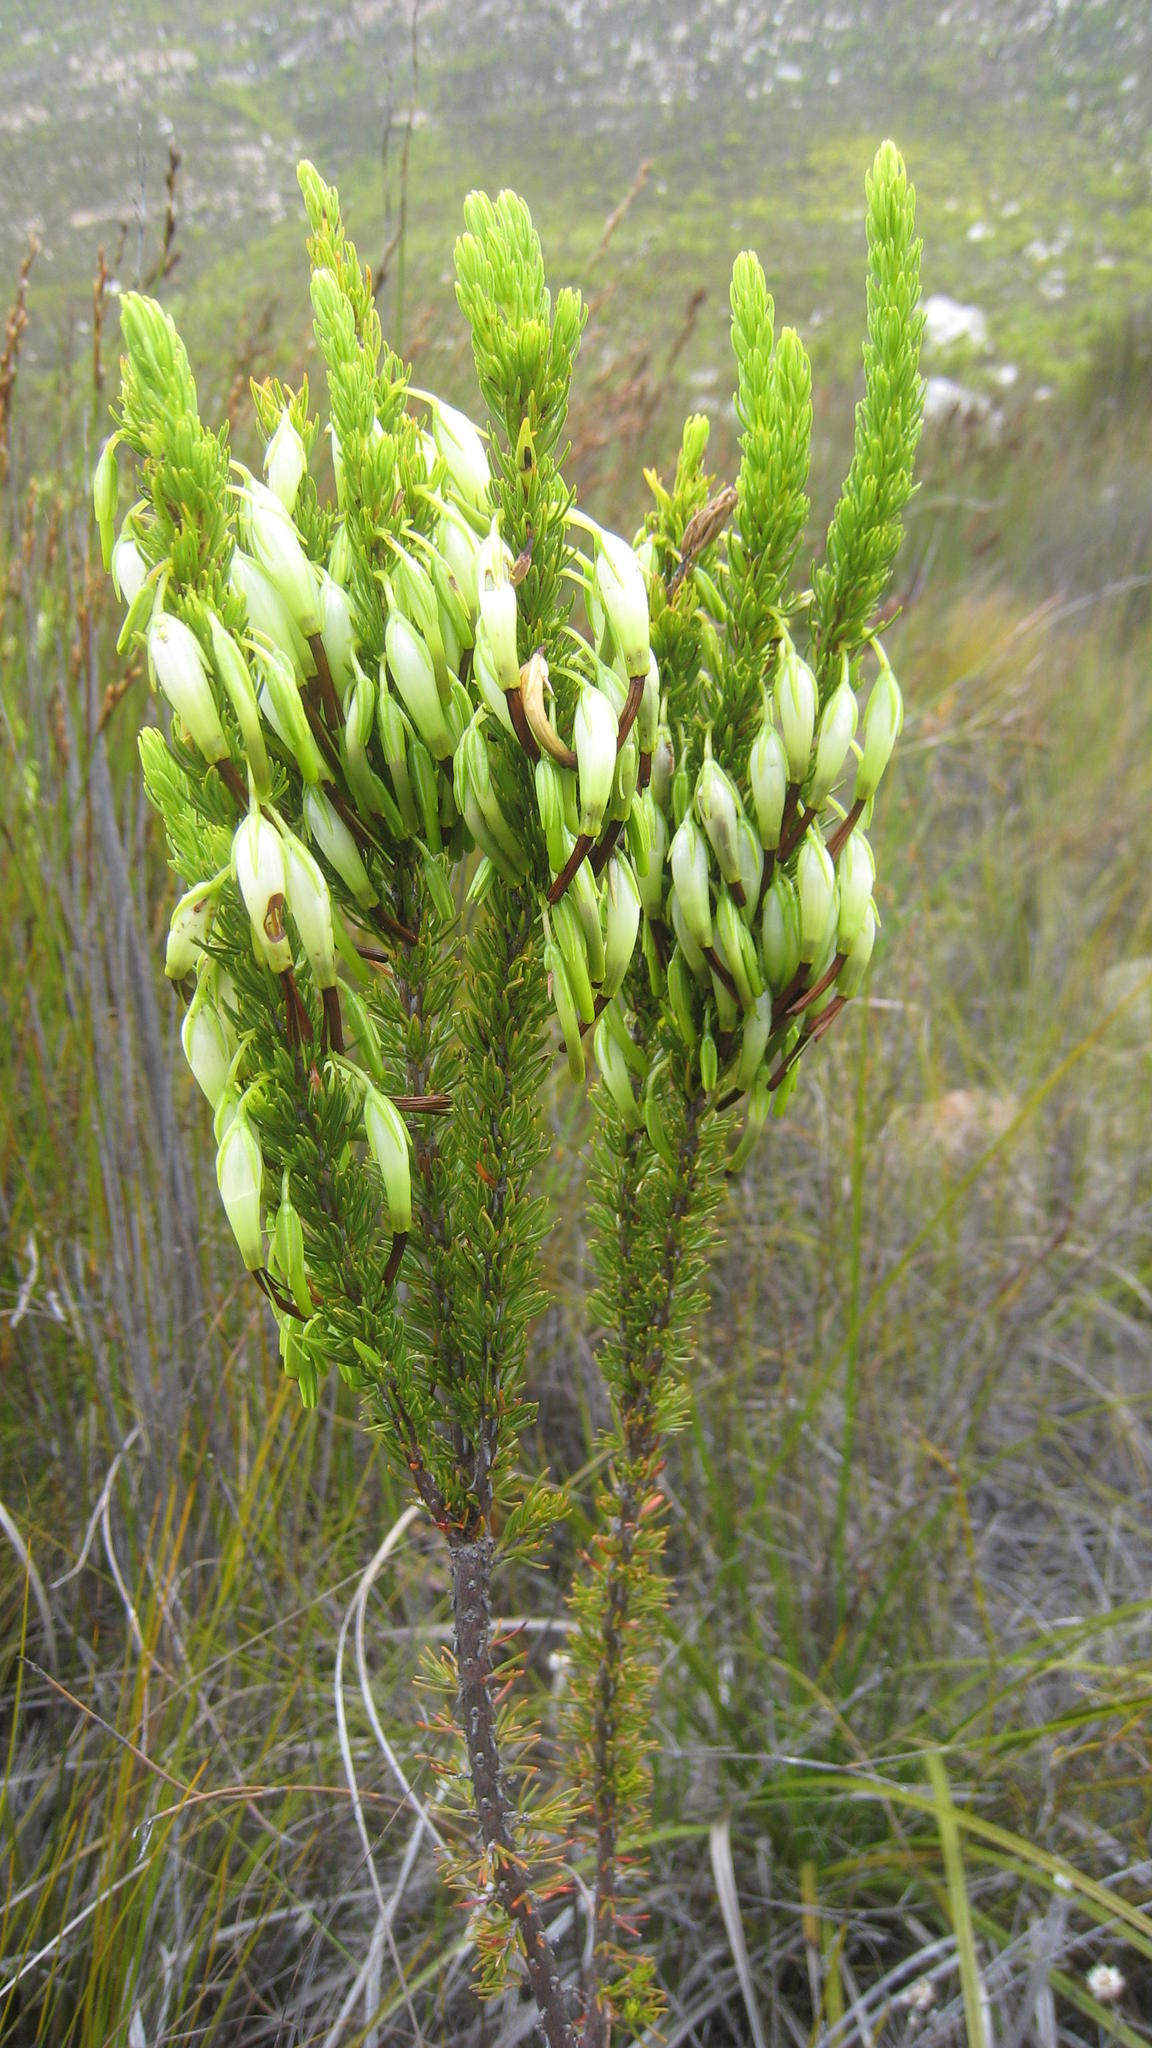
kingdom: Plantae
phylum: Tracheophyta
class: Magnoliopsida
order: Ericales
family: Ericaceae
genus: Erica
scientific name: Erica plukenetii
